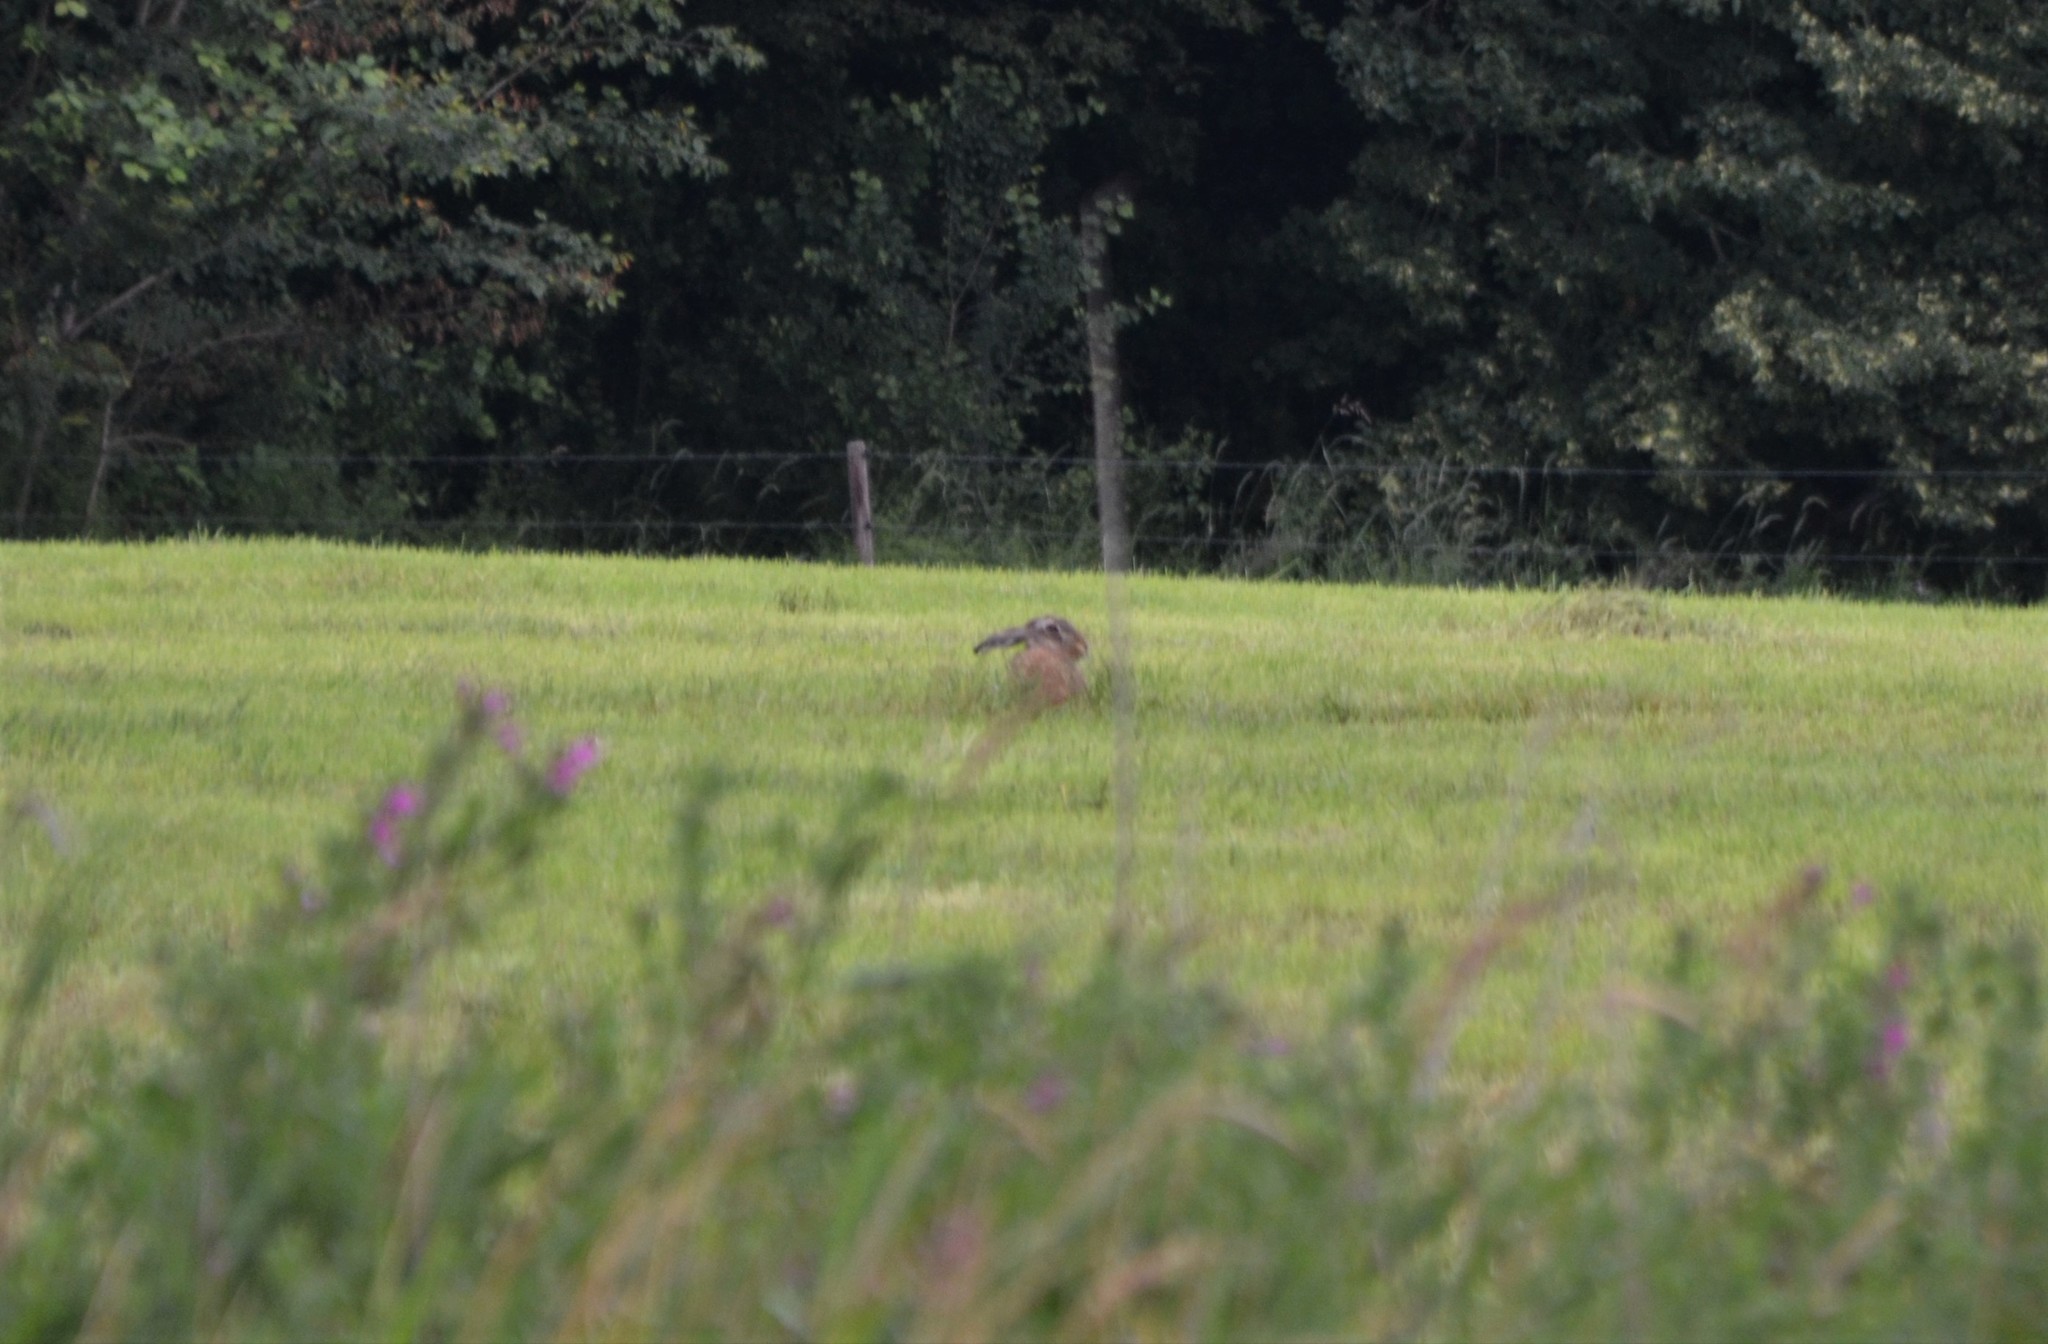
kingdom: Animalia
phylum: Chordata
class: Mammalia
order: Lagomorpha
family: Leporidae
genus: Lepus
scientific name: Lepus europaeus
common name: European hare
